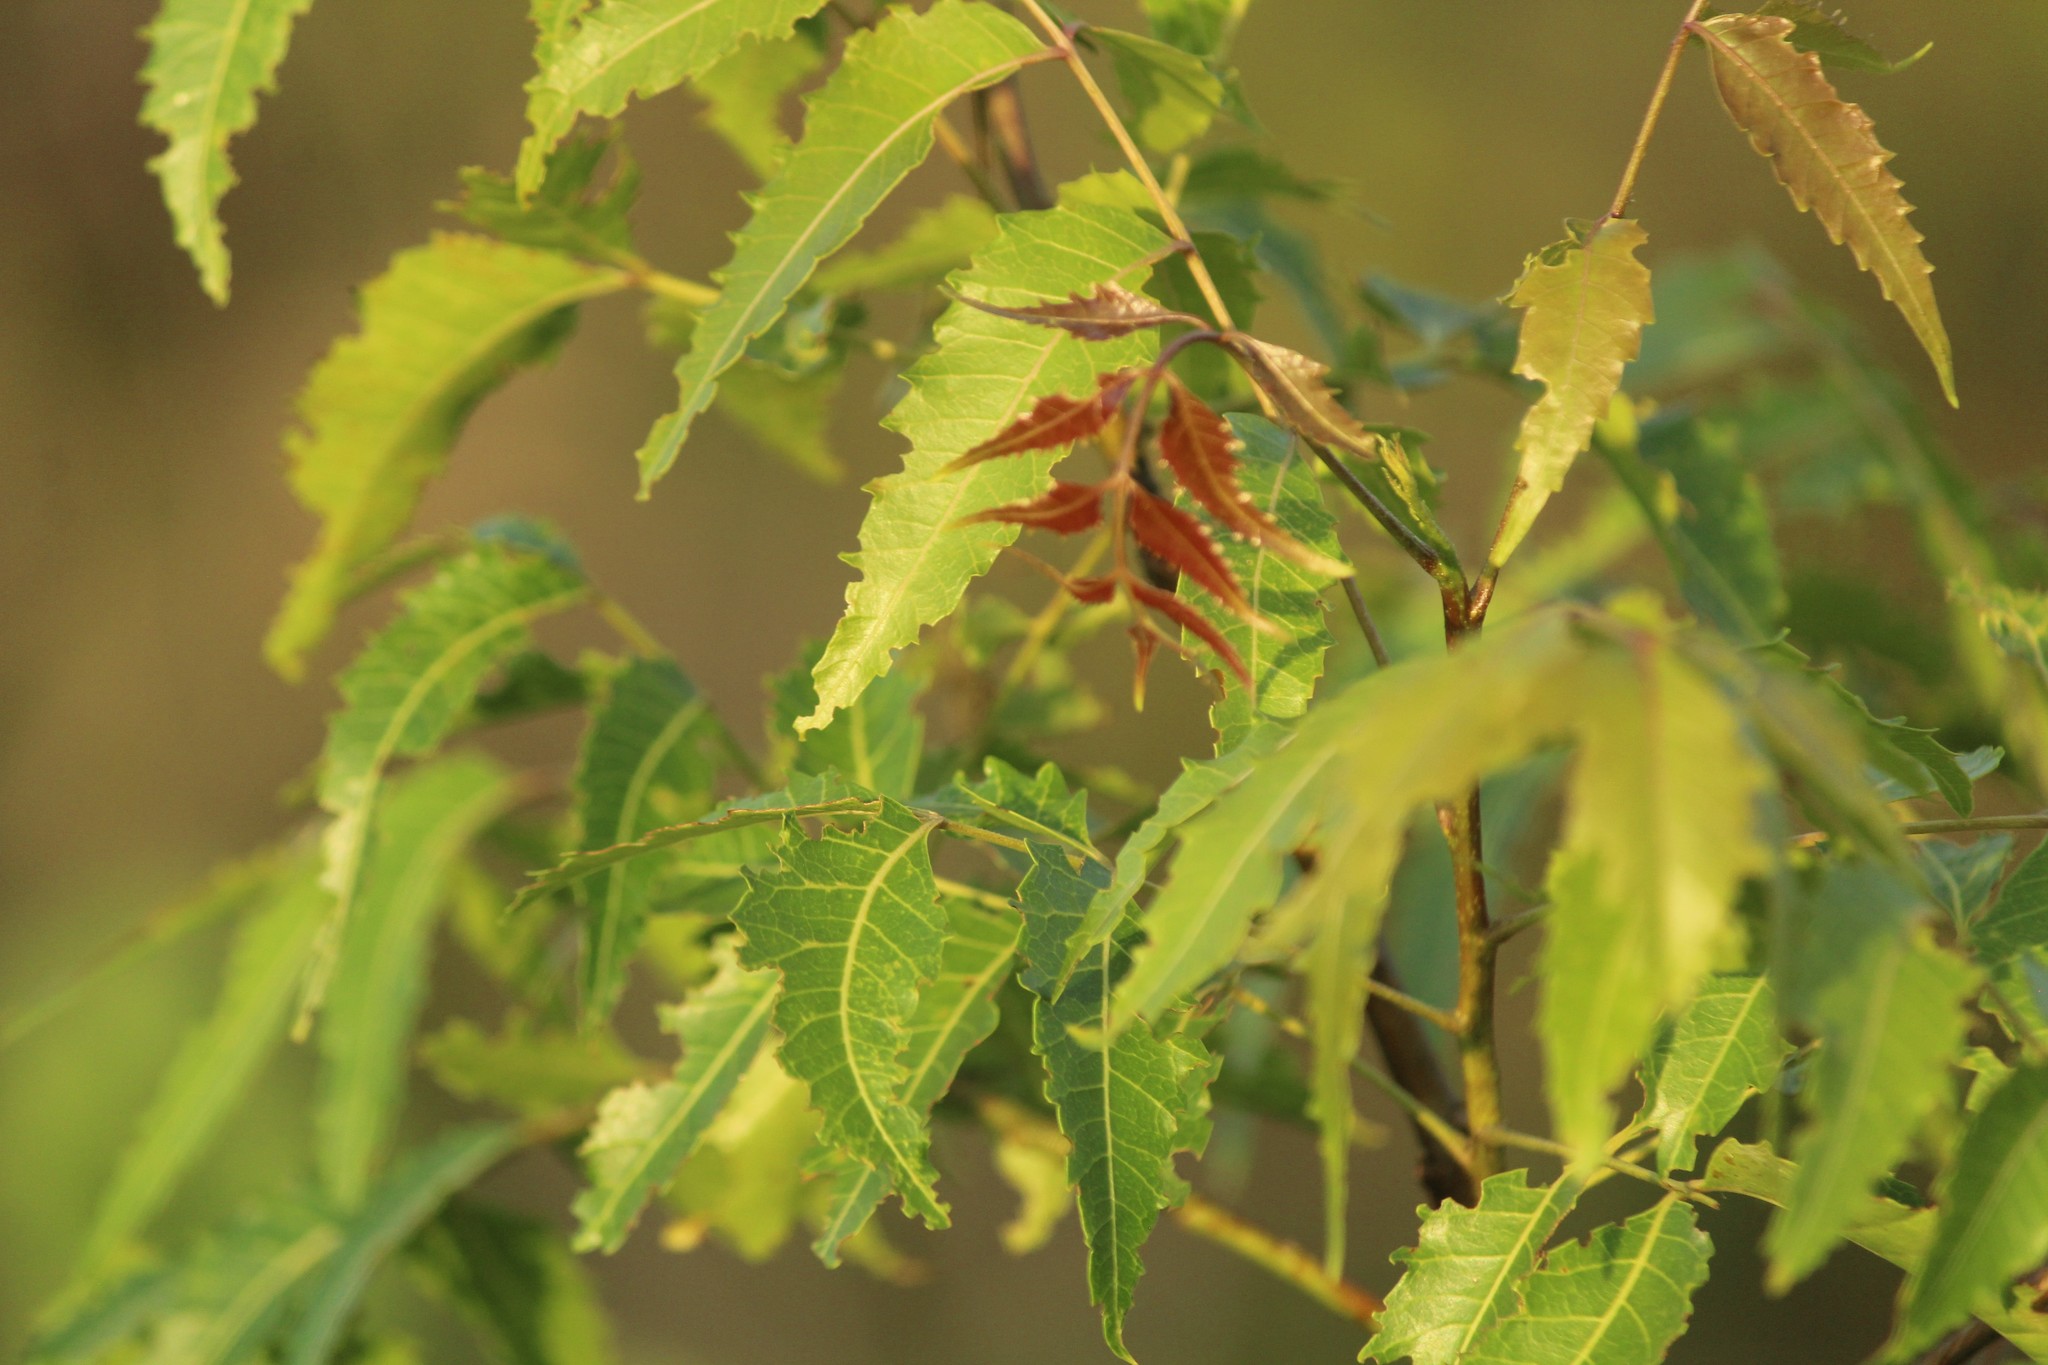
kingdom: Plantae
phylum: Tracheophyta
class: Magnoliopsida
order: Sapindales
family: Meliaceae
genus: Azadirachta
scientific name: Azadirachta indica
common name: Neem
